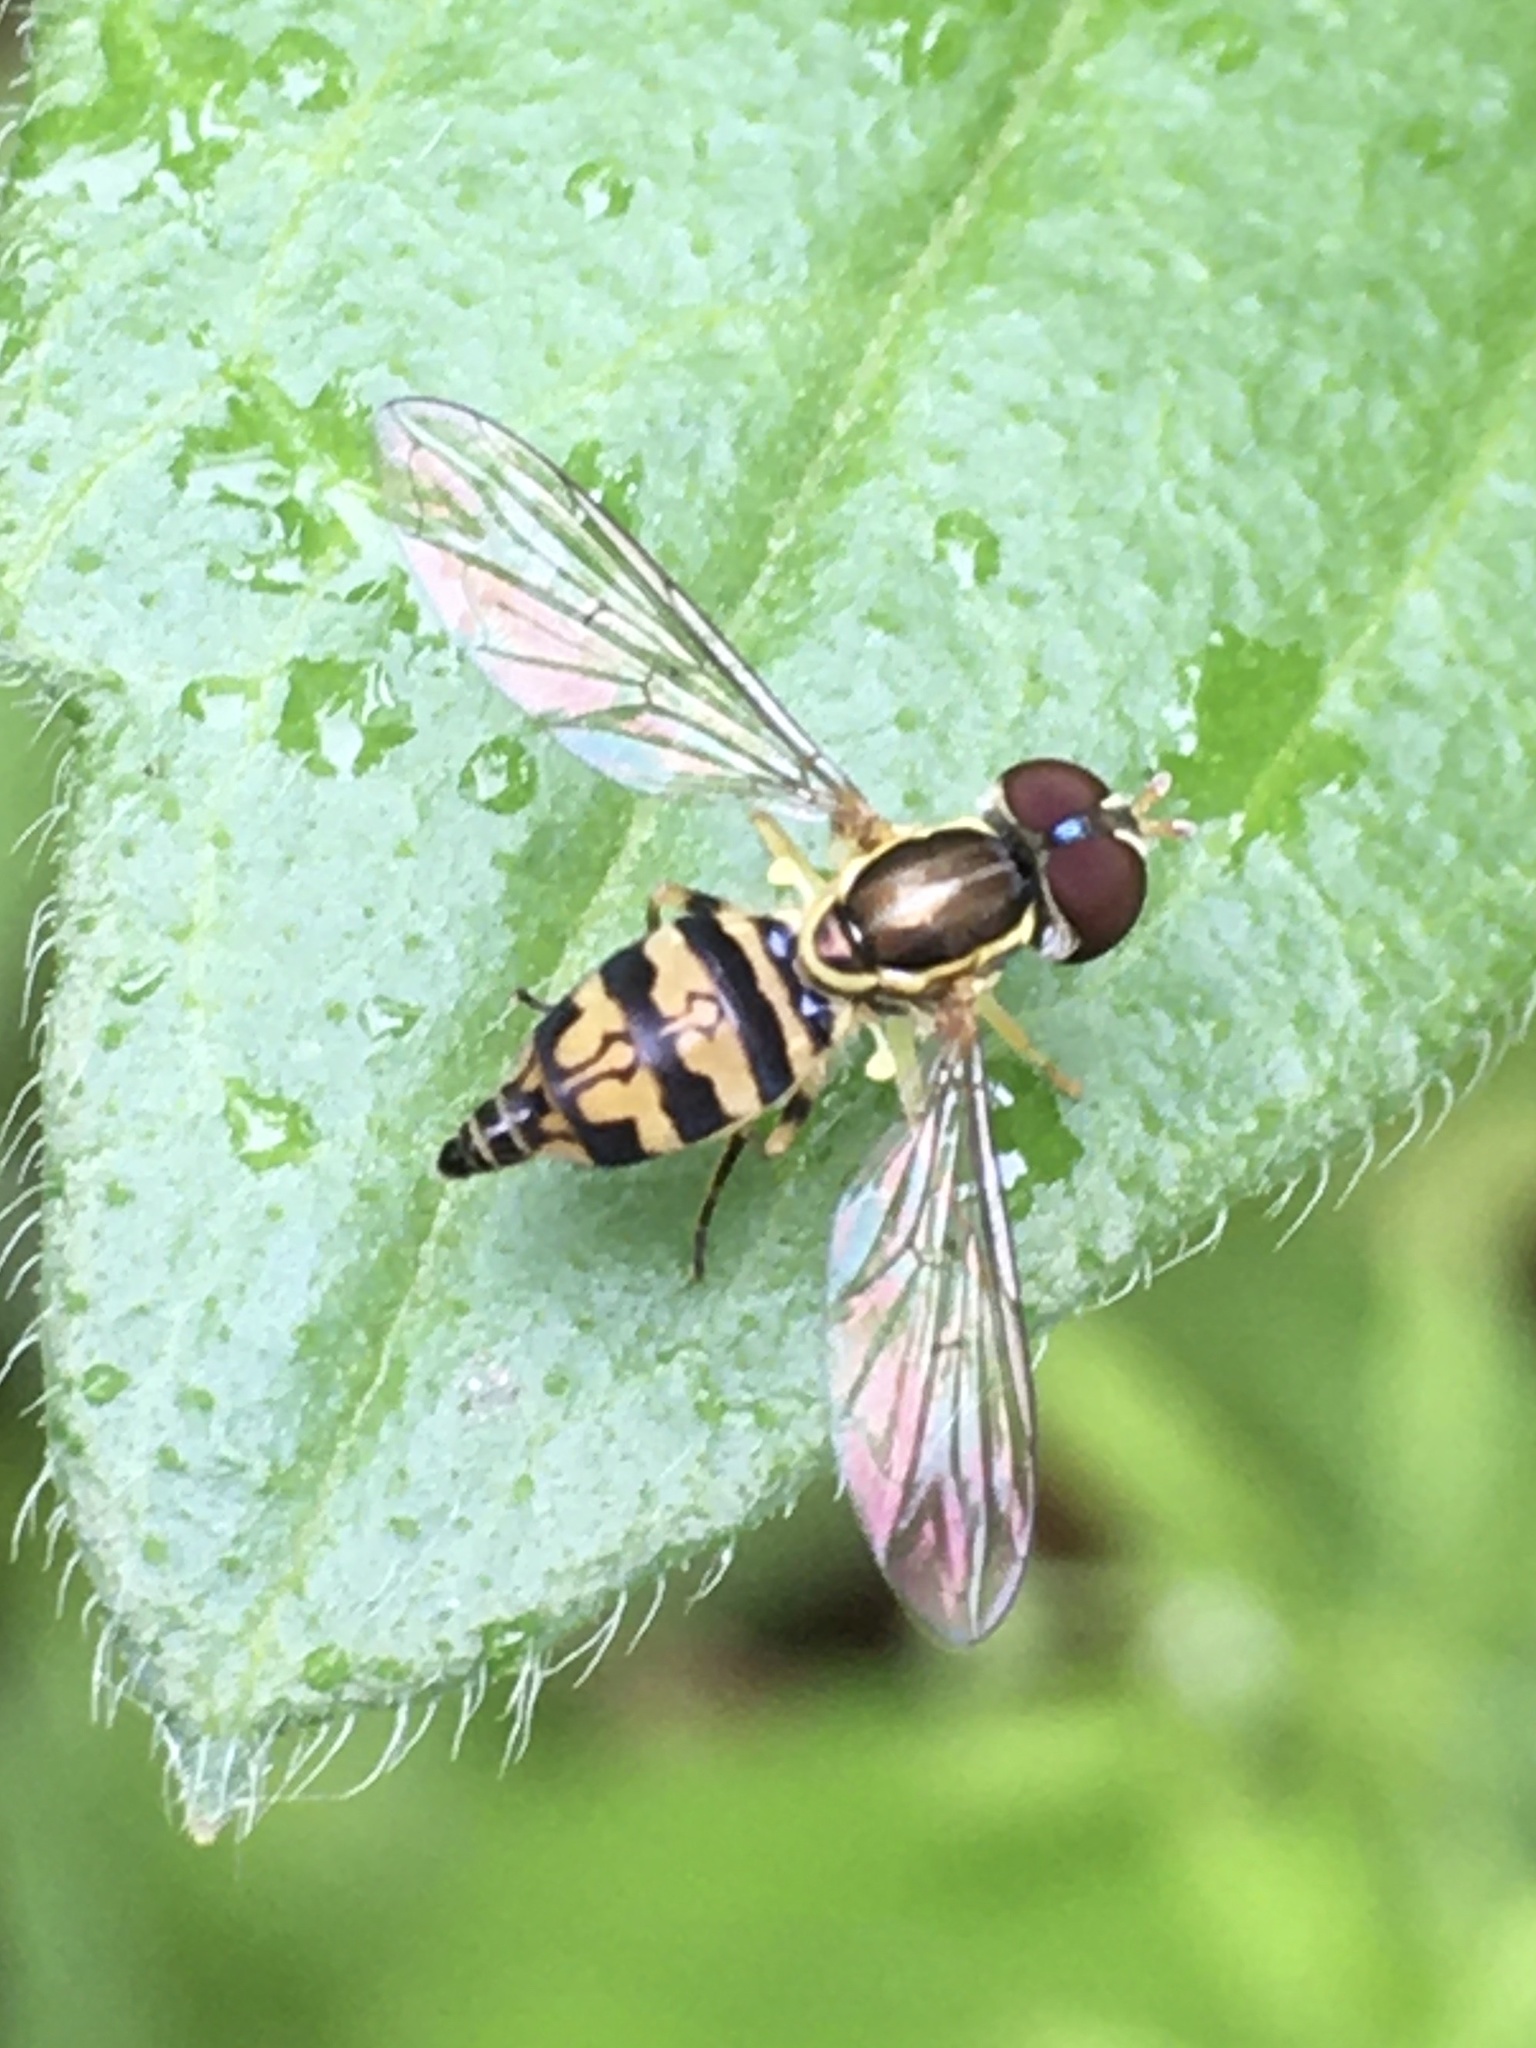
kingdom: Animalia
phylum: Arthropoda
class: Insecta
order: Diptera
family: Syrphidae
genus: Toxomerus
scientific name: Toxomerus geminatus
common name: Eastern calligrapher
